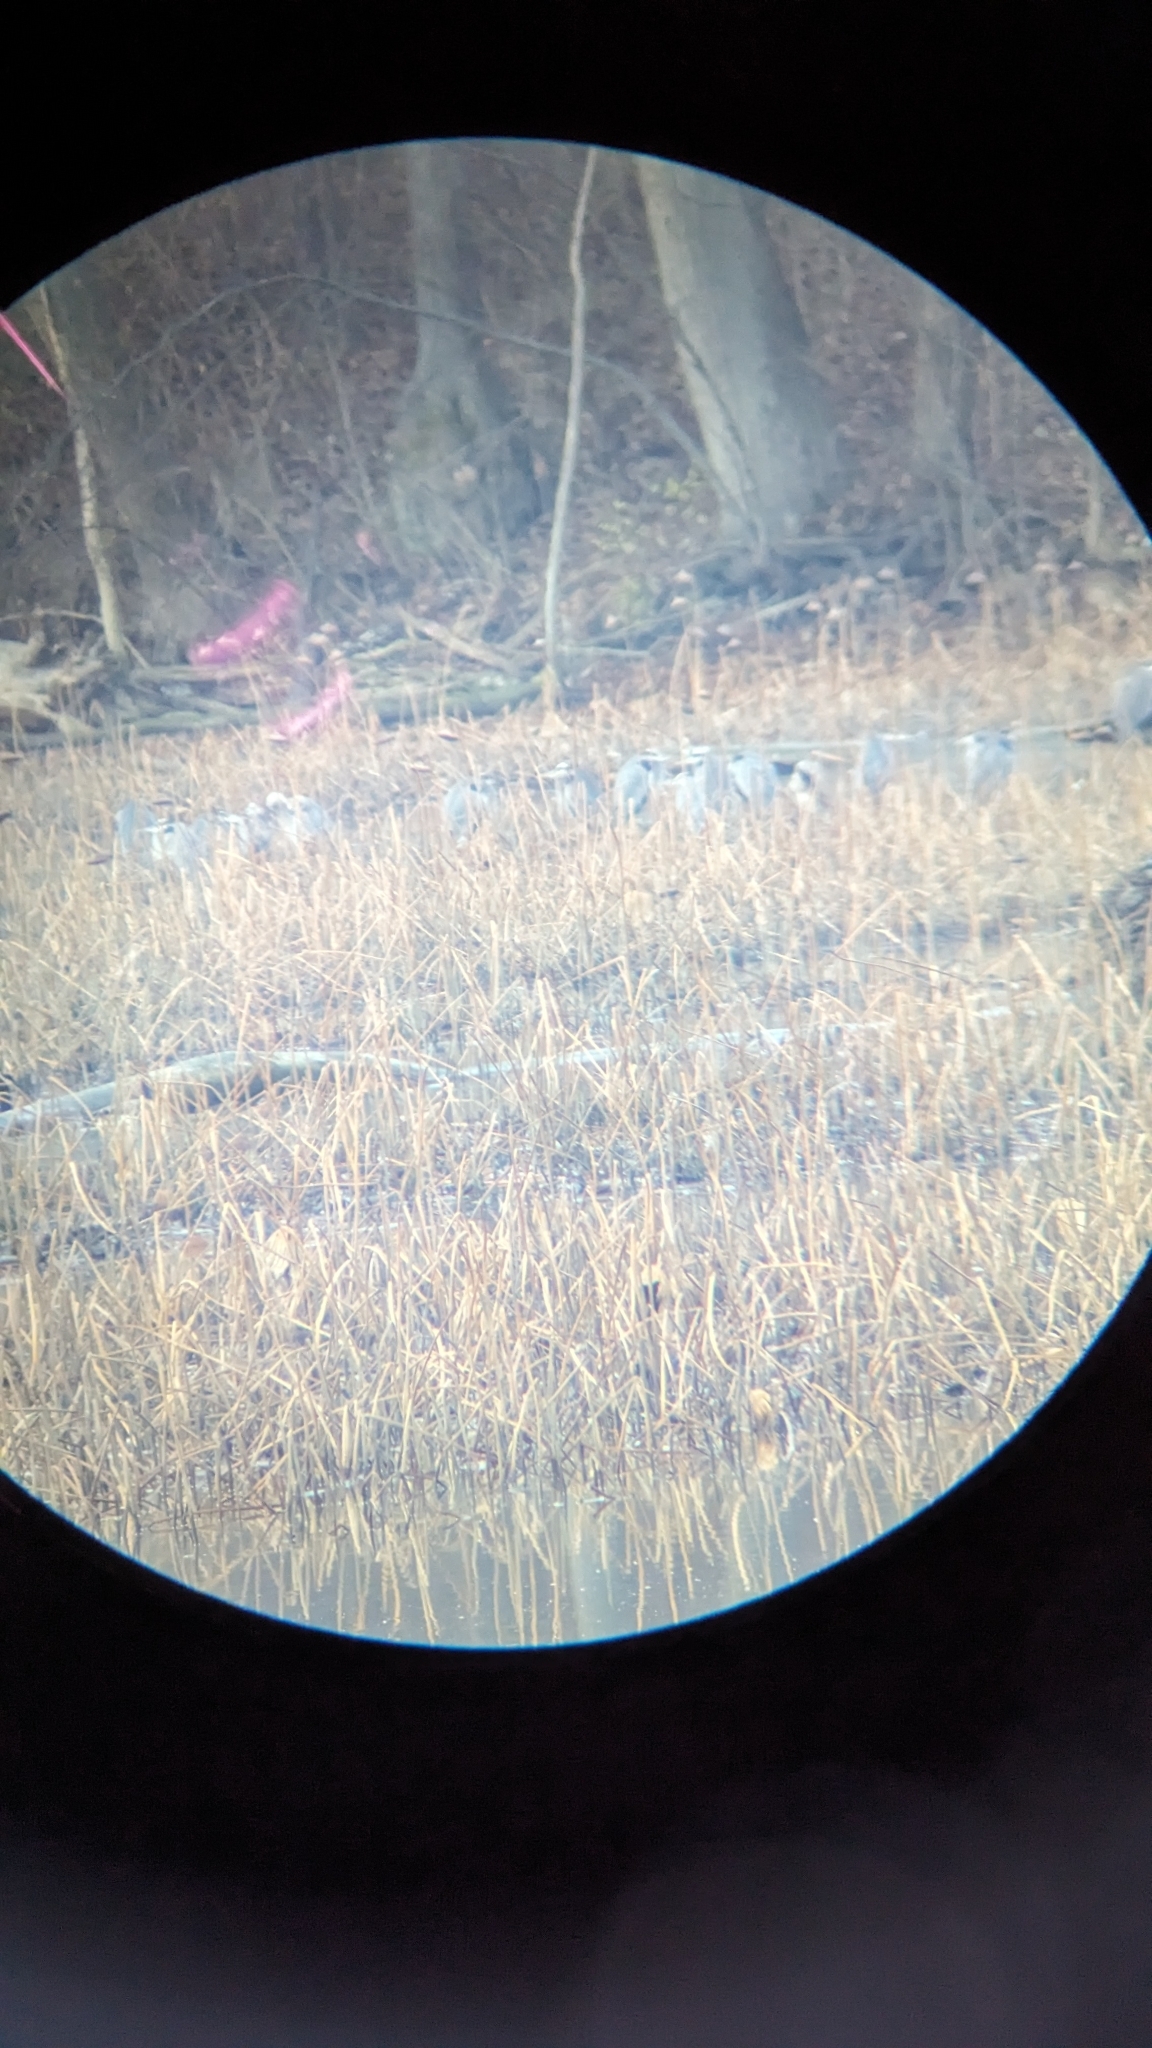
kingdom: Animalia
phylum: Chordata
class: Aves
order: Pelecaniformes
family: Ardeidae
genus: Ardea
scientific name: Ardea herodias
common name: Great blue heron
